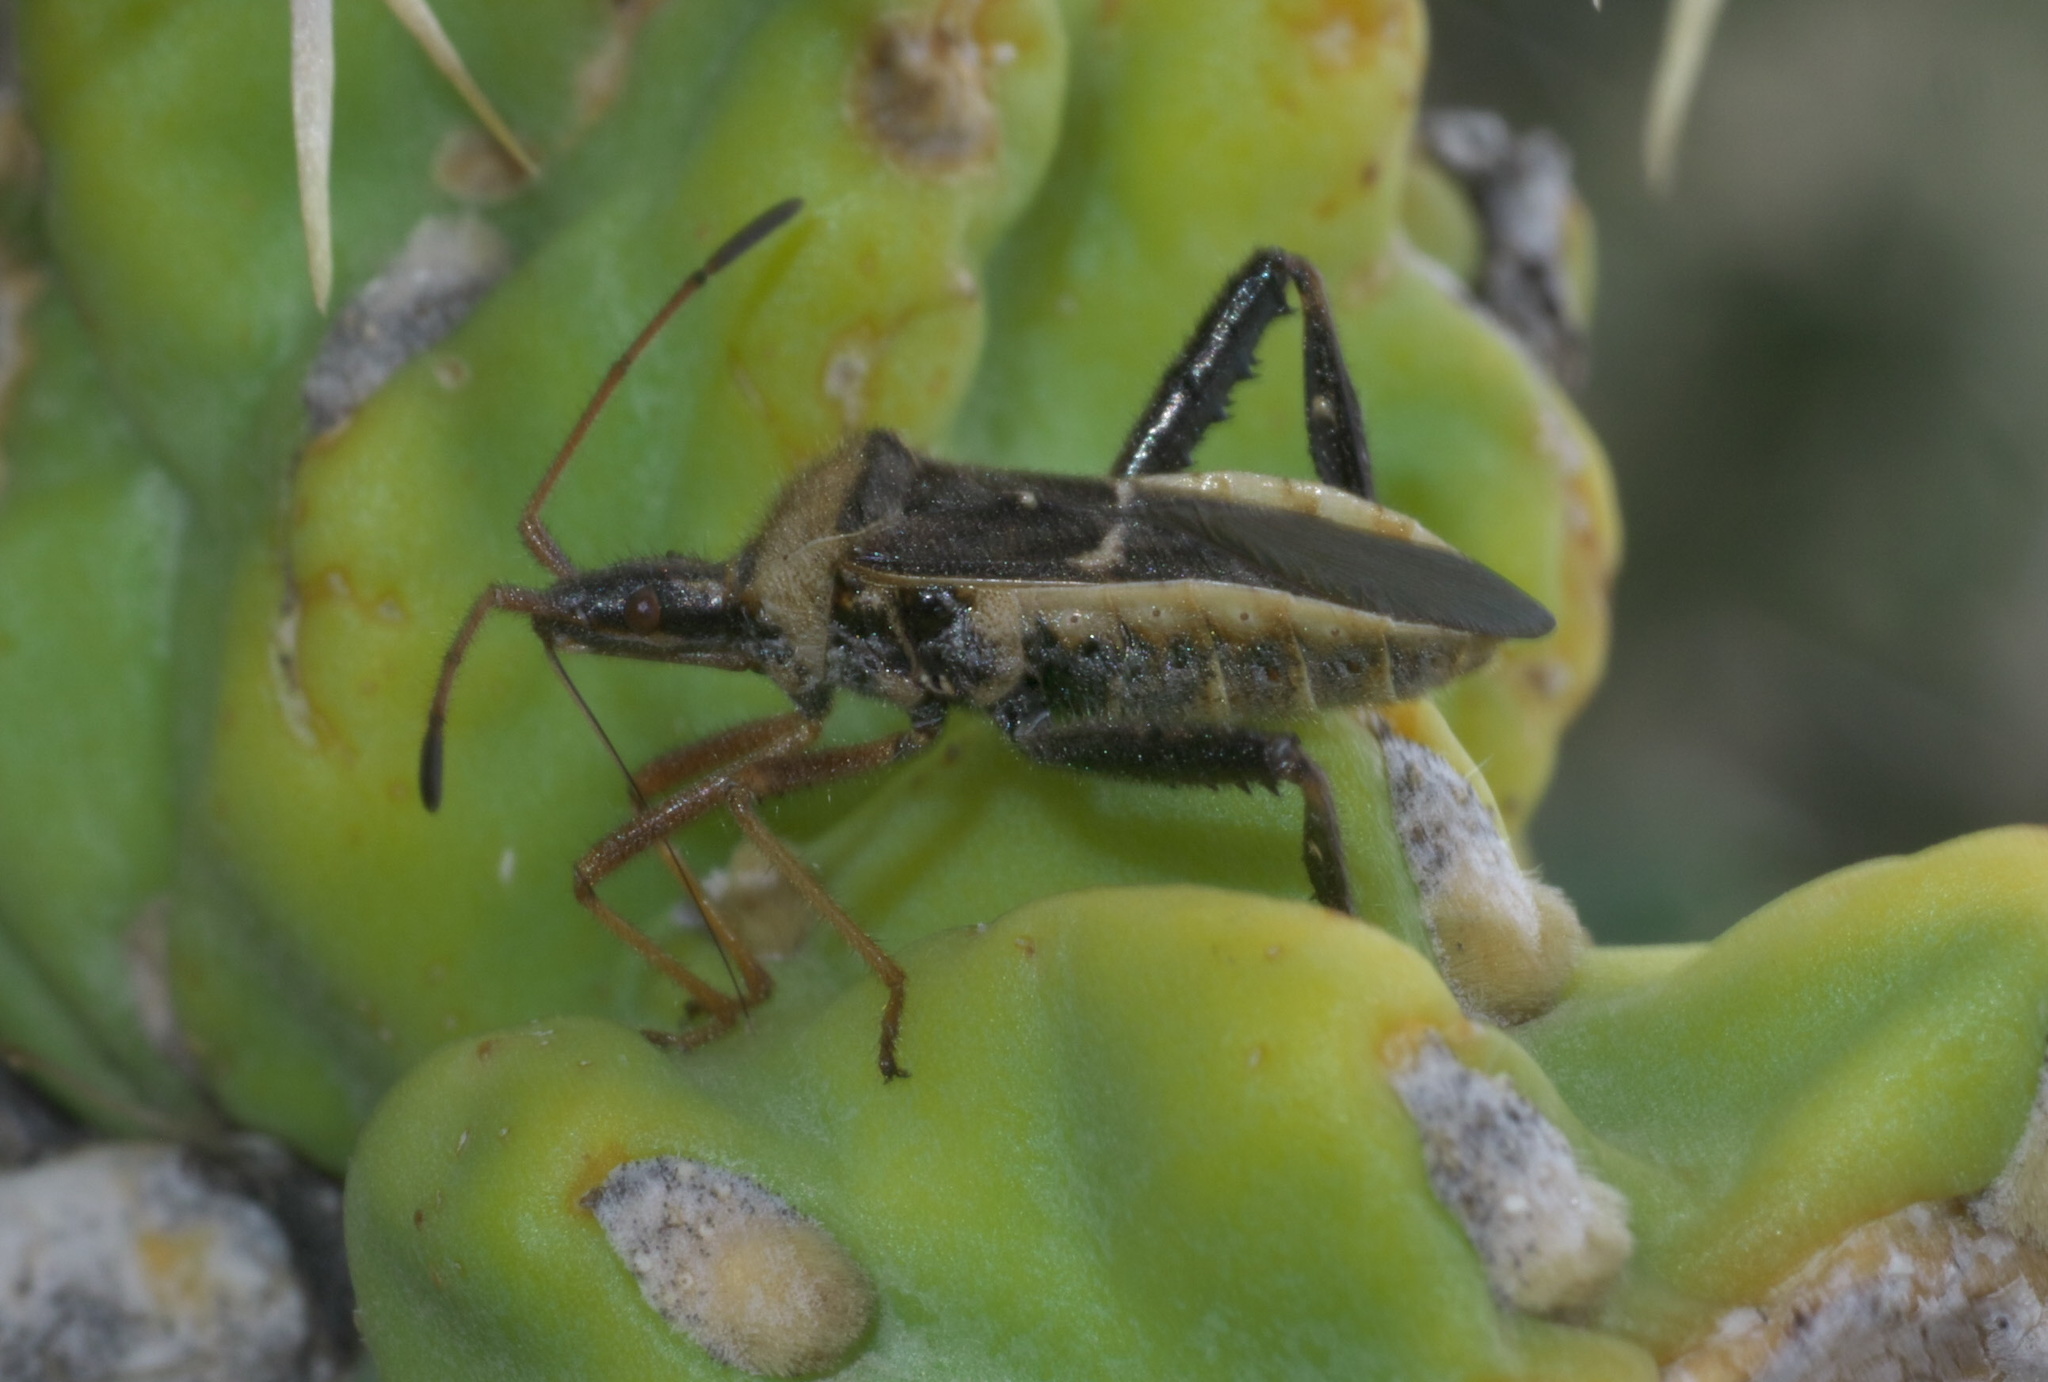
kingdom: Animalia
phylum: Arthropoda
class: Insecta
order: Hemiptera
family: Coreidae
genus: Narnia
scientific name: Narnia snowi
